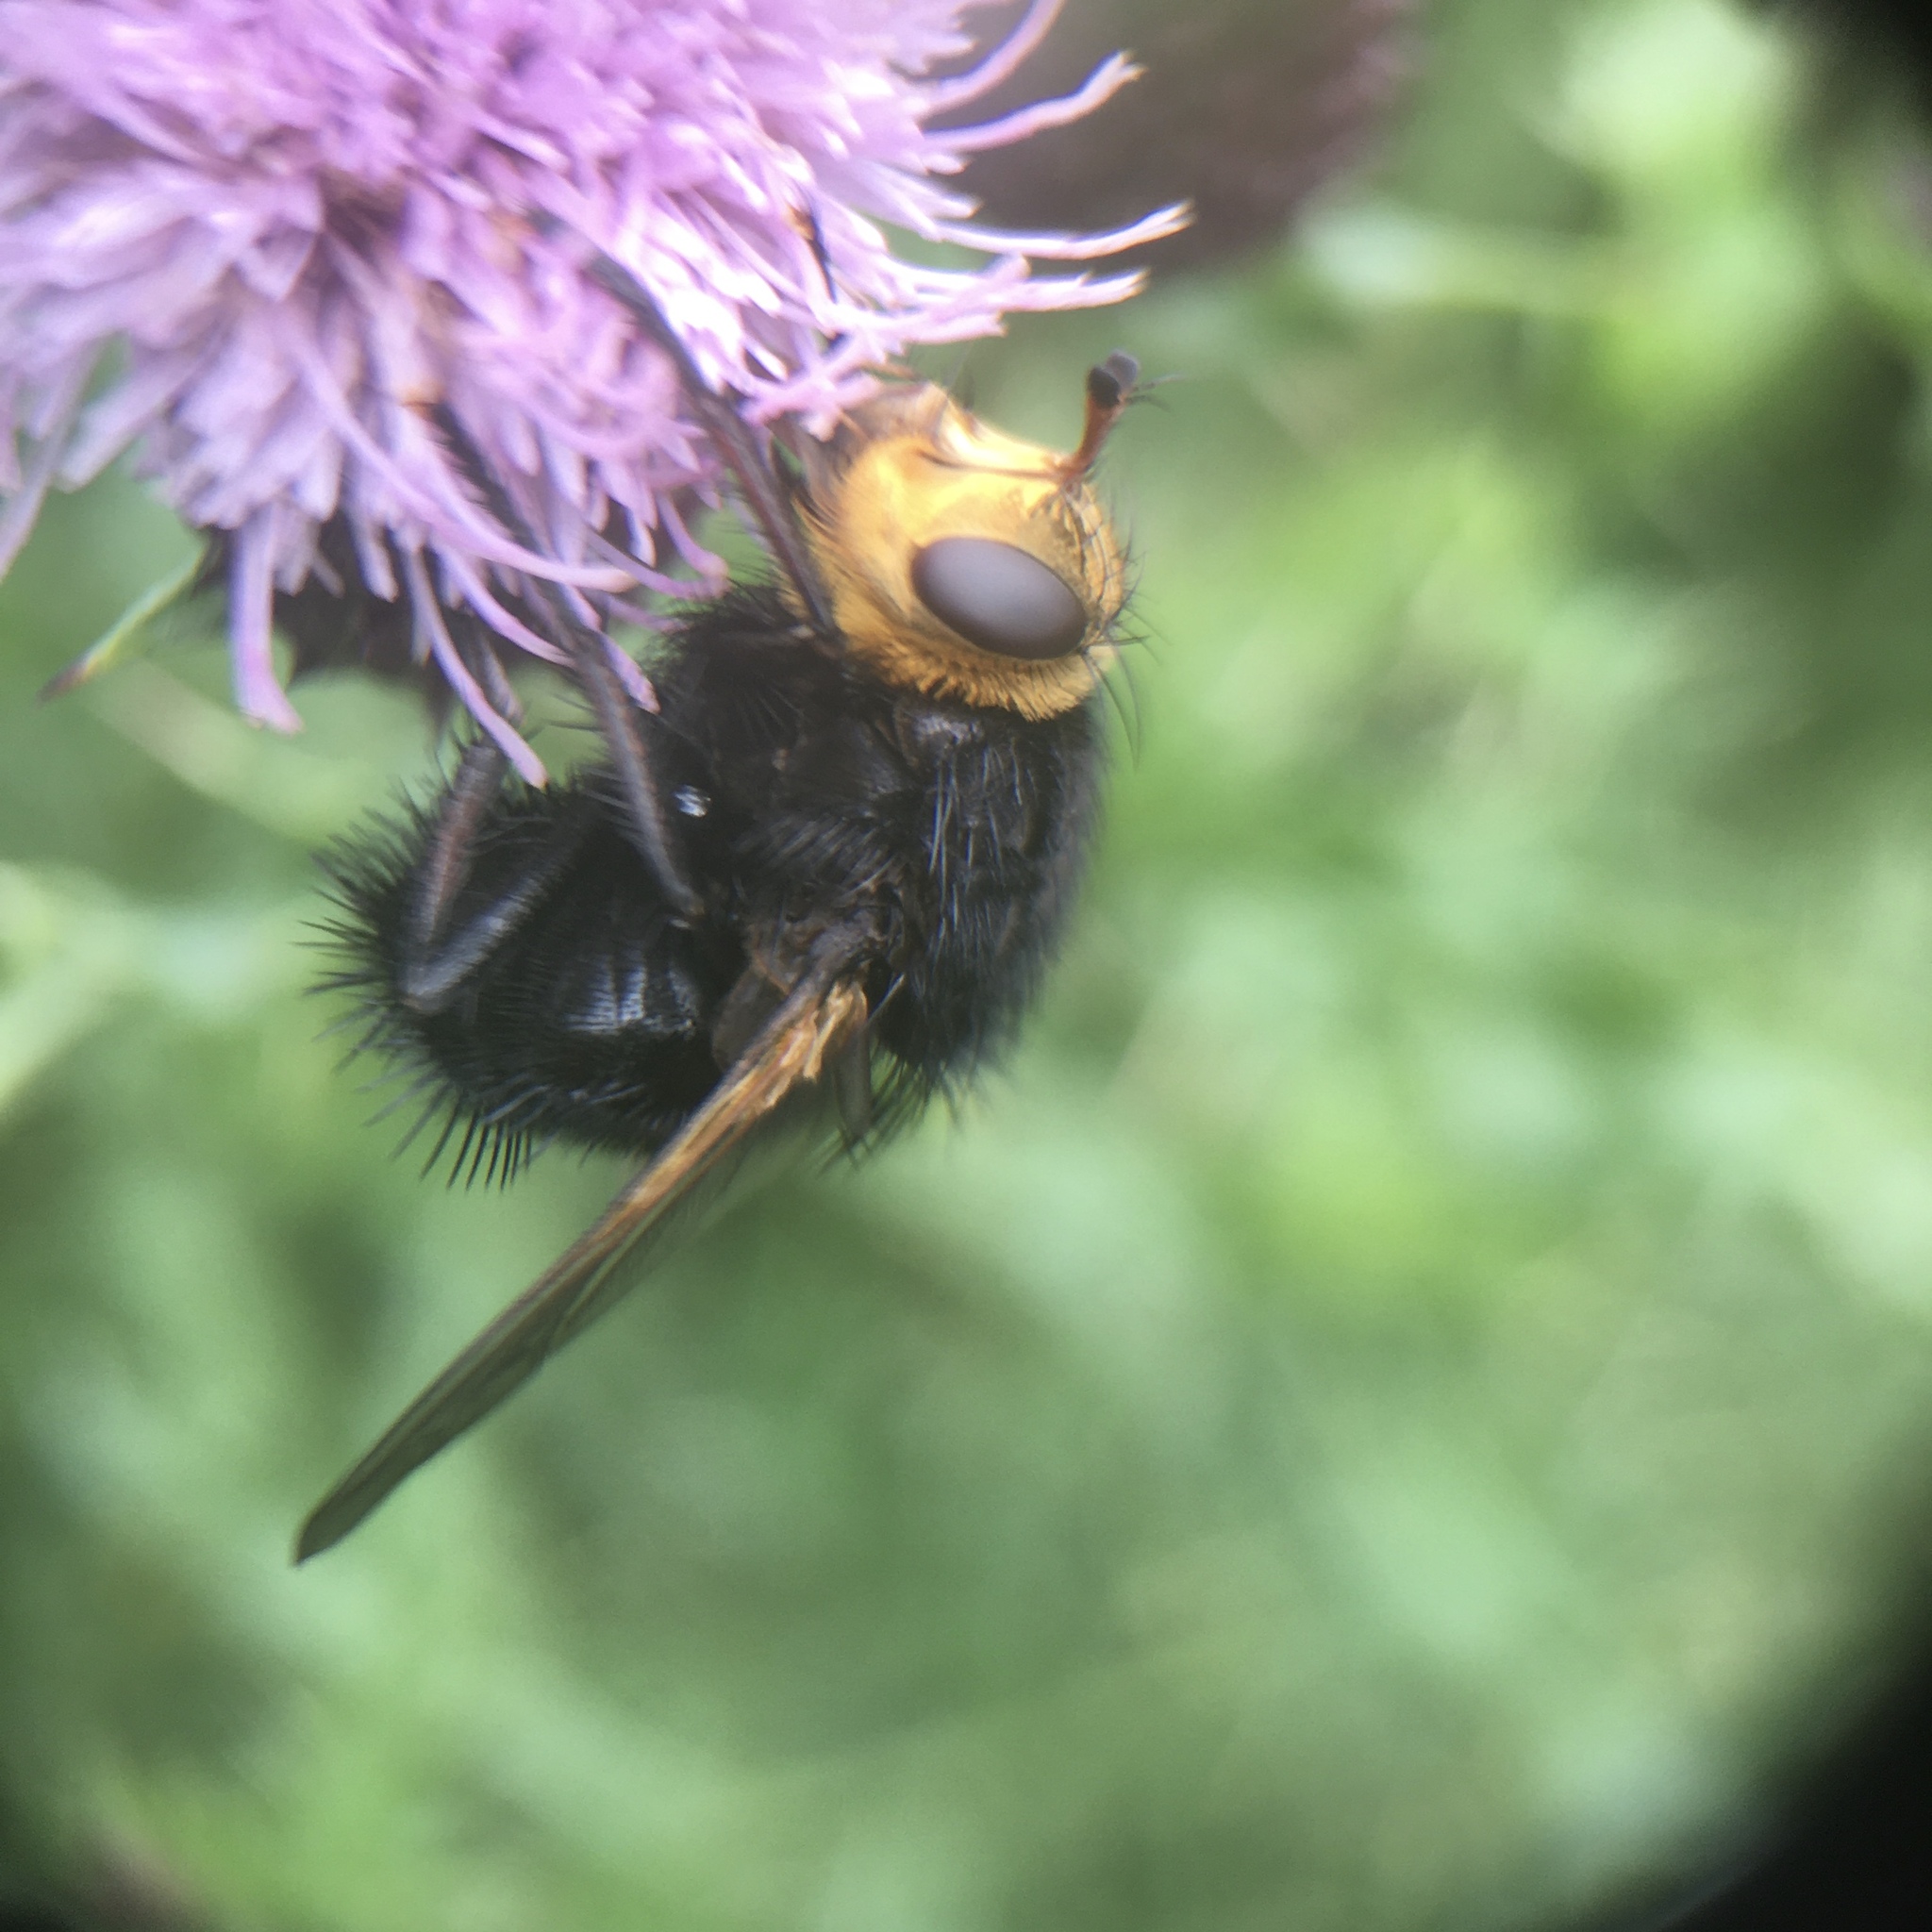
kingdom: Animalia
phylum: Arthropoda
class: Insecta
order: Diptera
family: Tachinidae
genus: Tachina
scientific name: Tachina grossa
